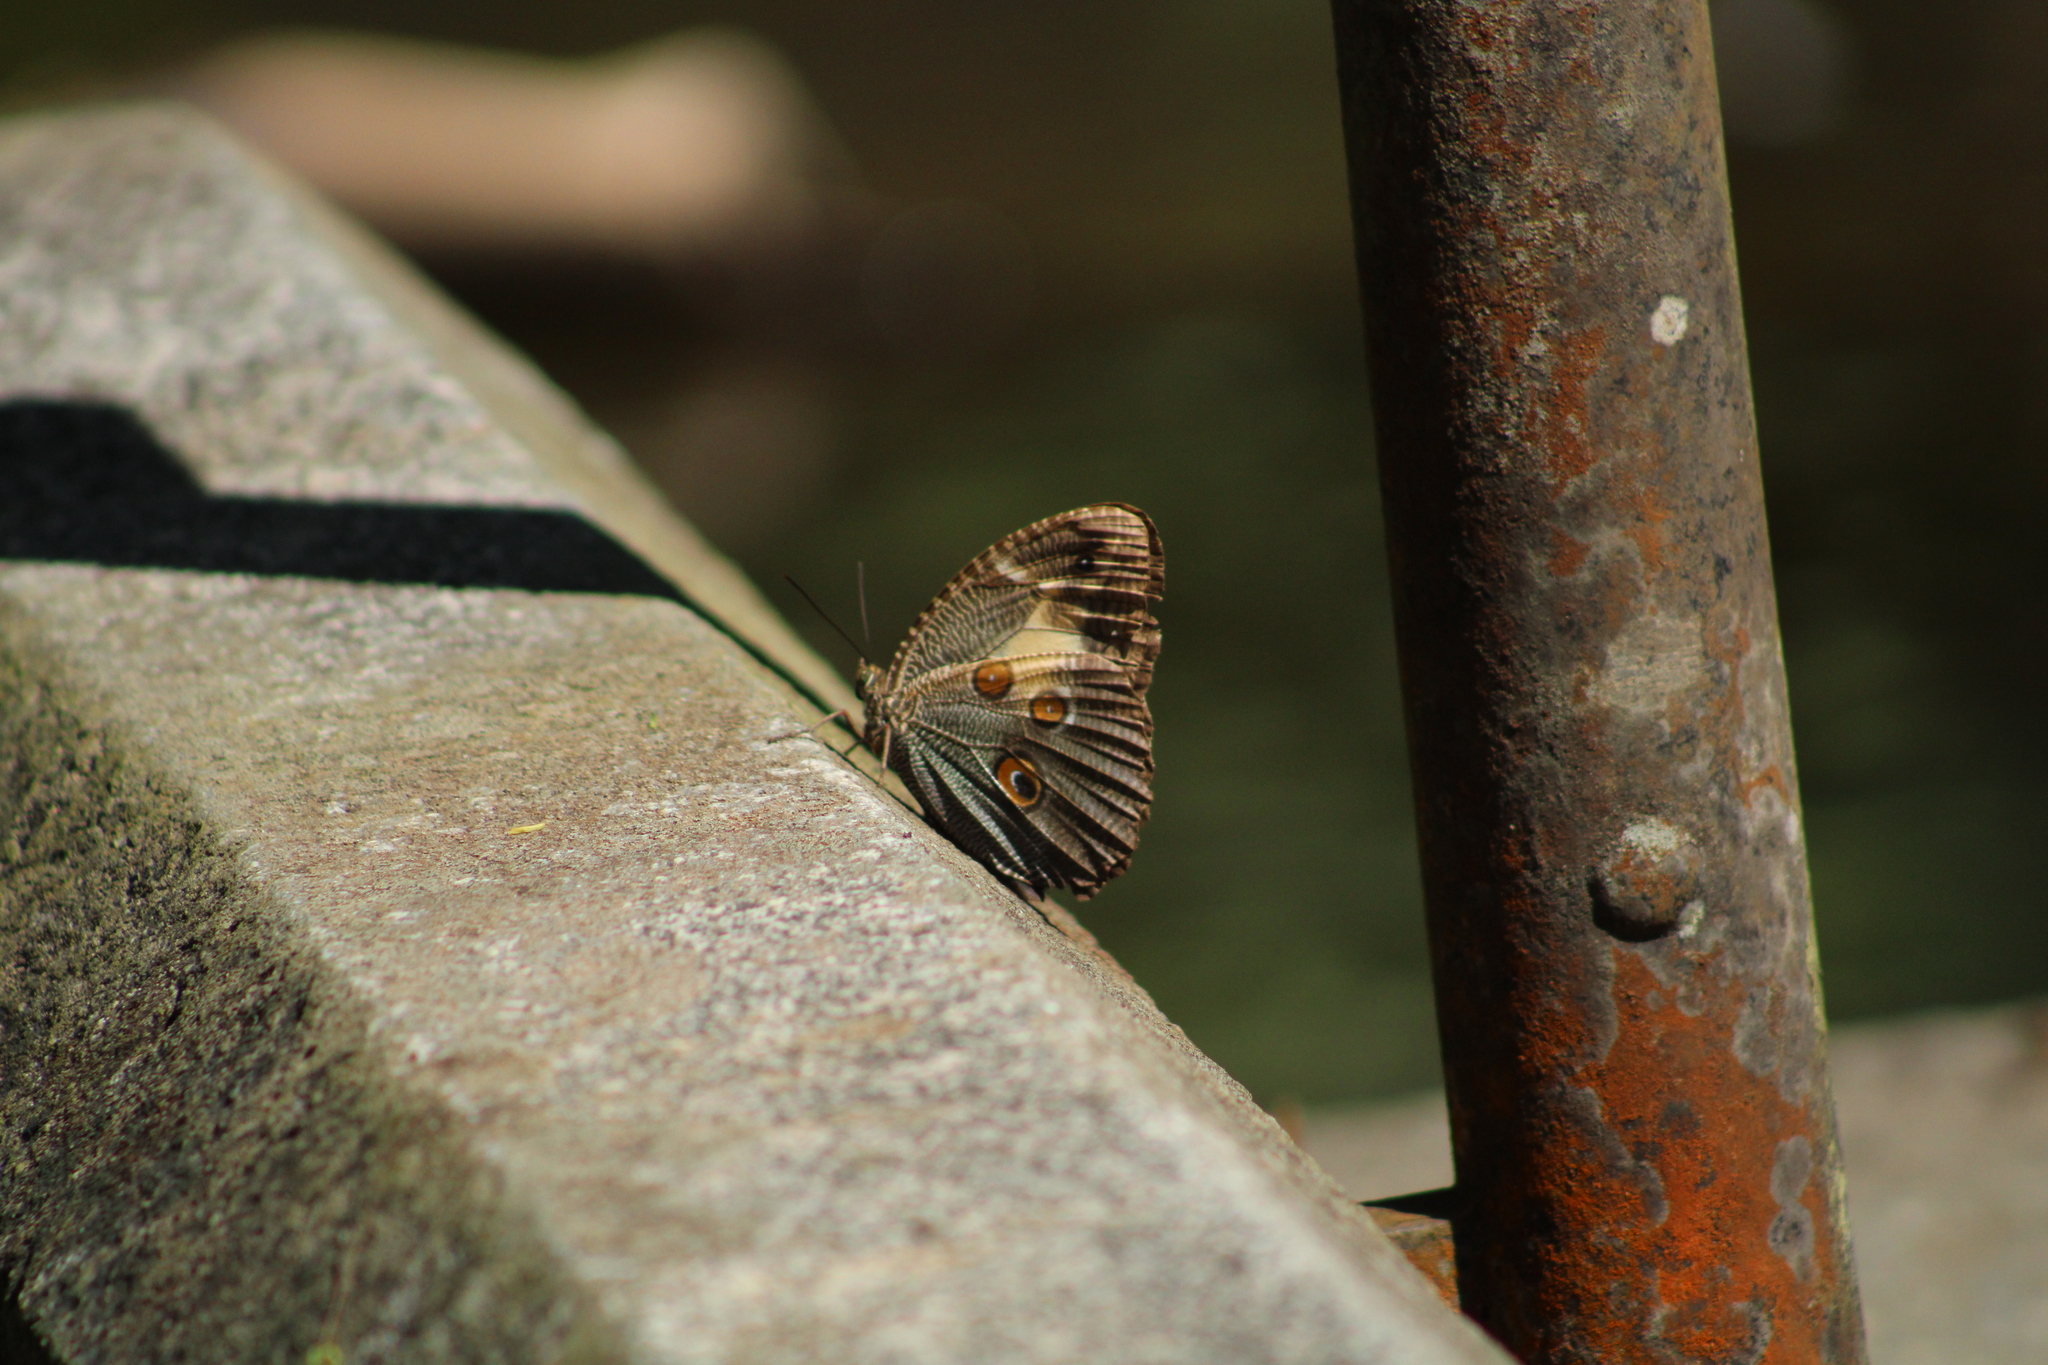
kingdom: Animalia
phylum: Arthropoda
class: Insecta
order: Lepidoptera
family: Nymphalidae
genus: Dasyophthalma
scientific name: Dasyophthalma creusa
